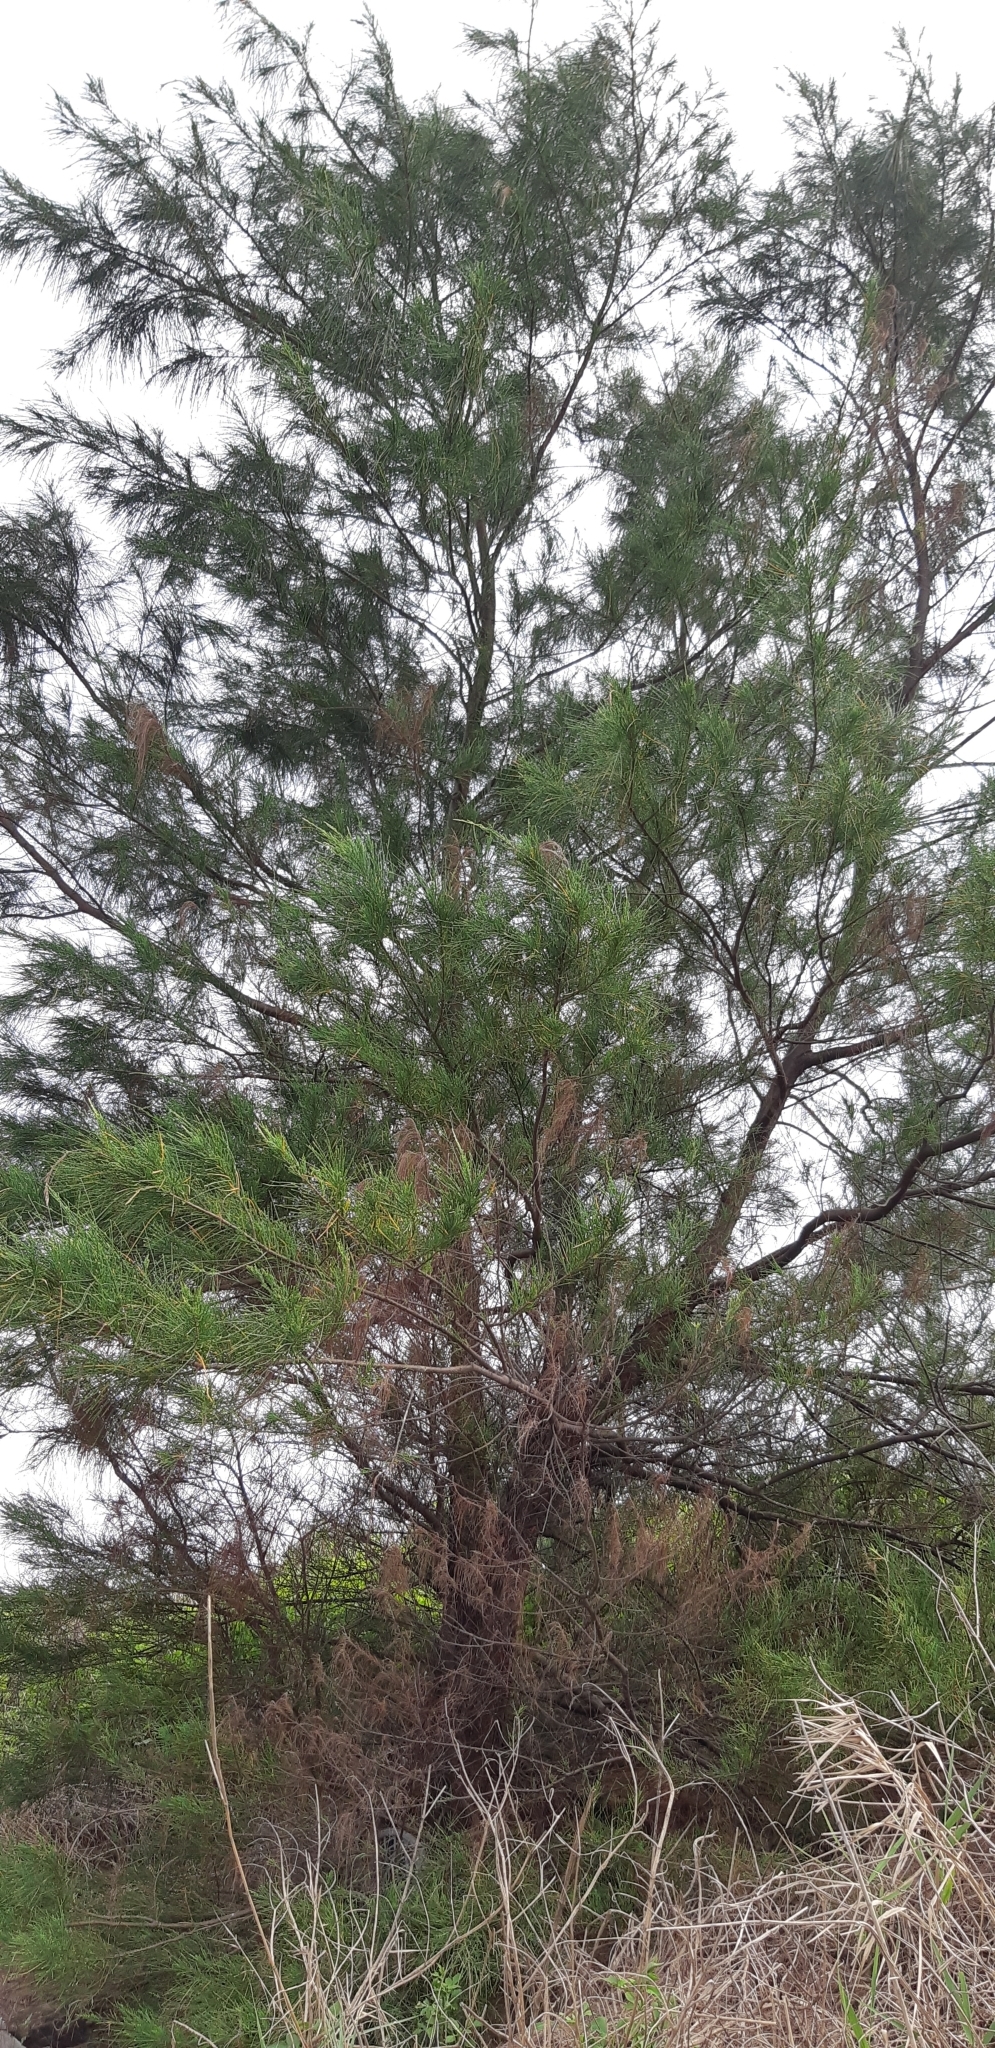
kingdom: Plantae
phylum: Tracheophyta
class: Magnoliopsida
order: Fagales
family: Casuarinaceae
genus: Casuarina
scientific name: Casuarina equisetifolia
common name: Beach sheoak
